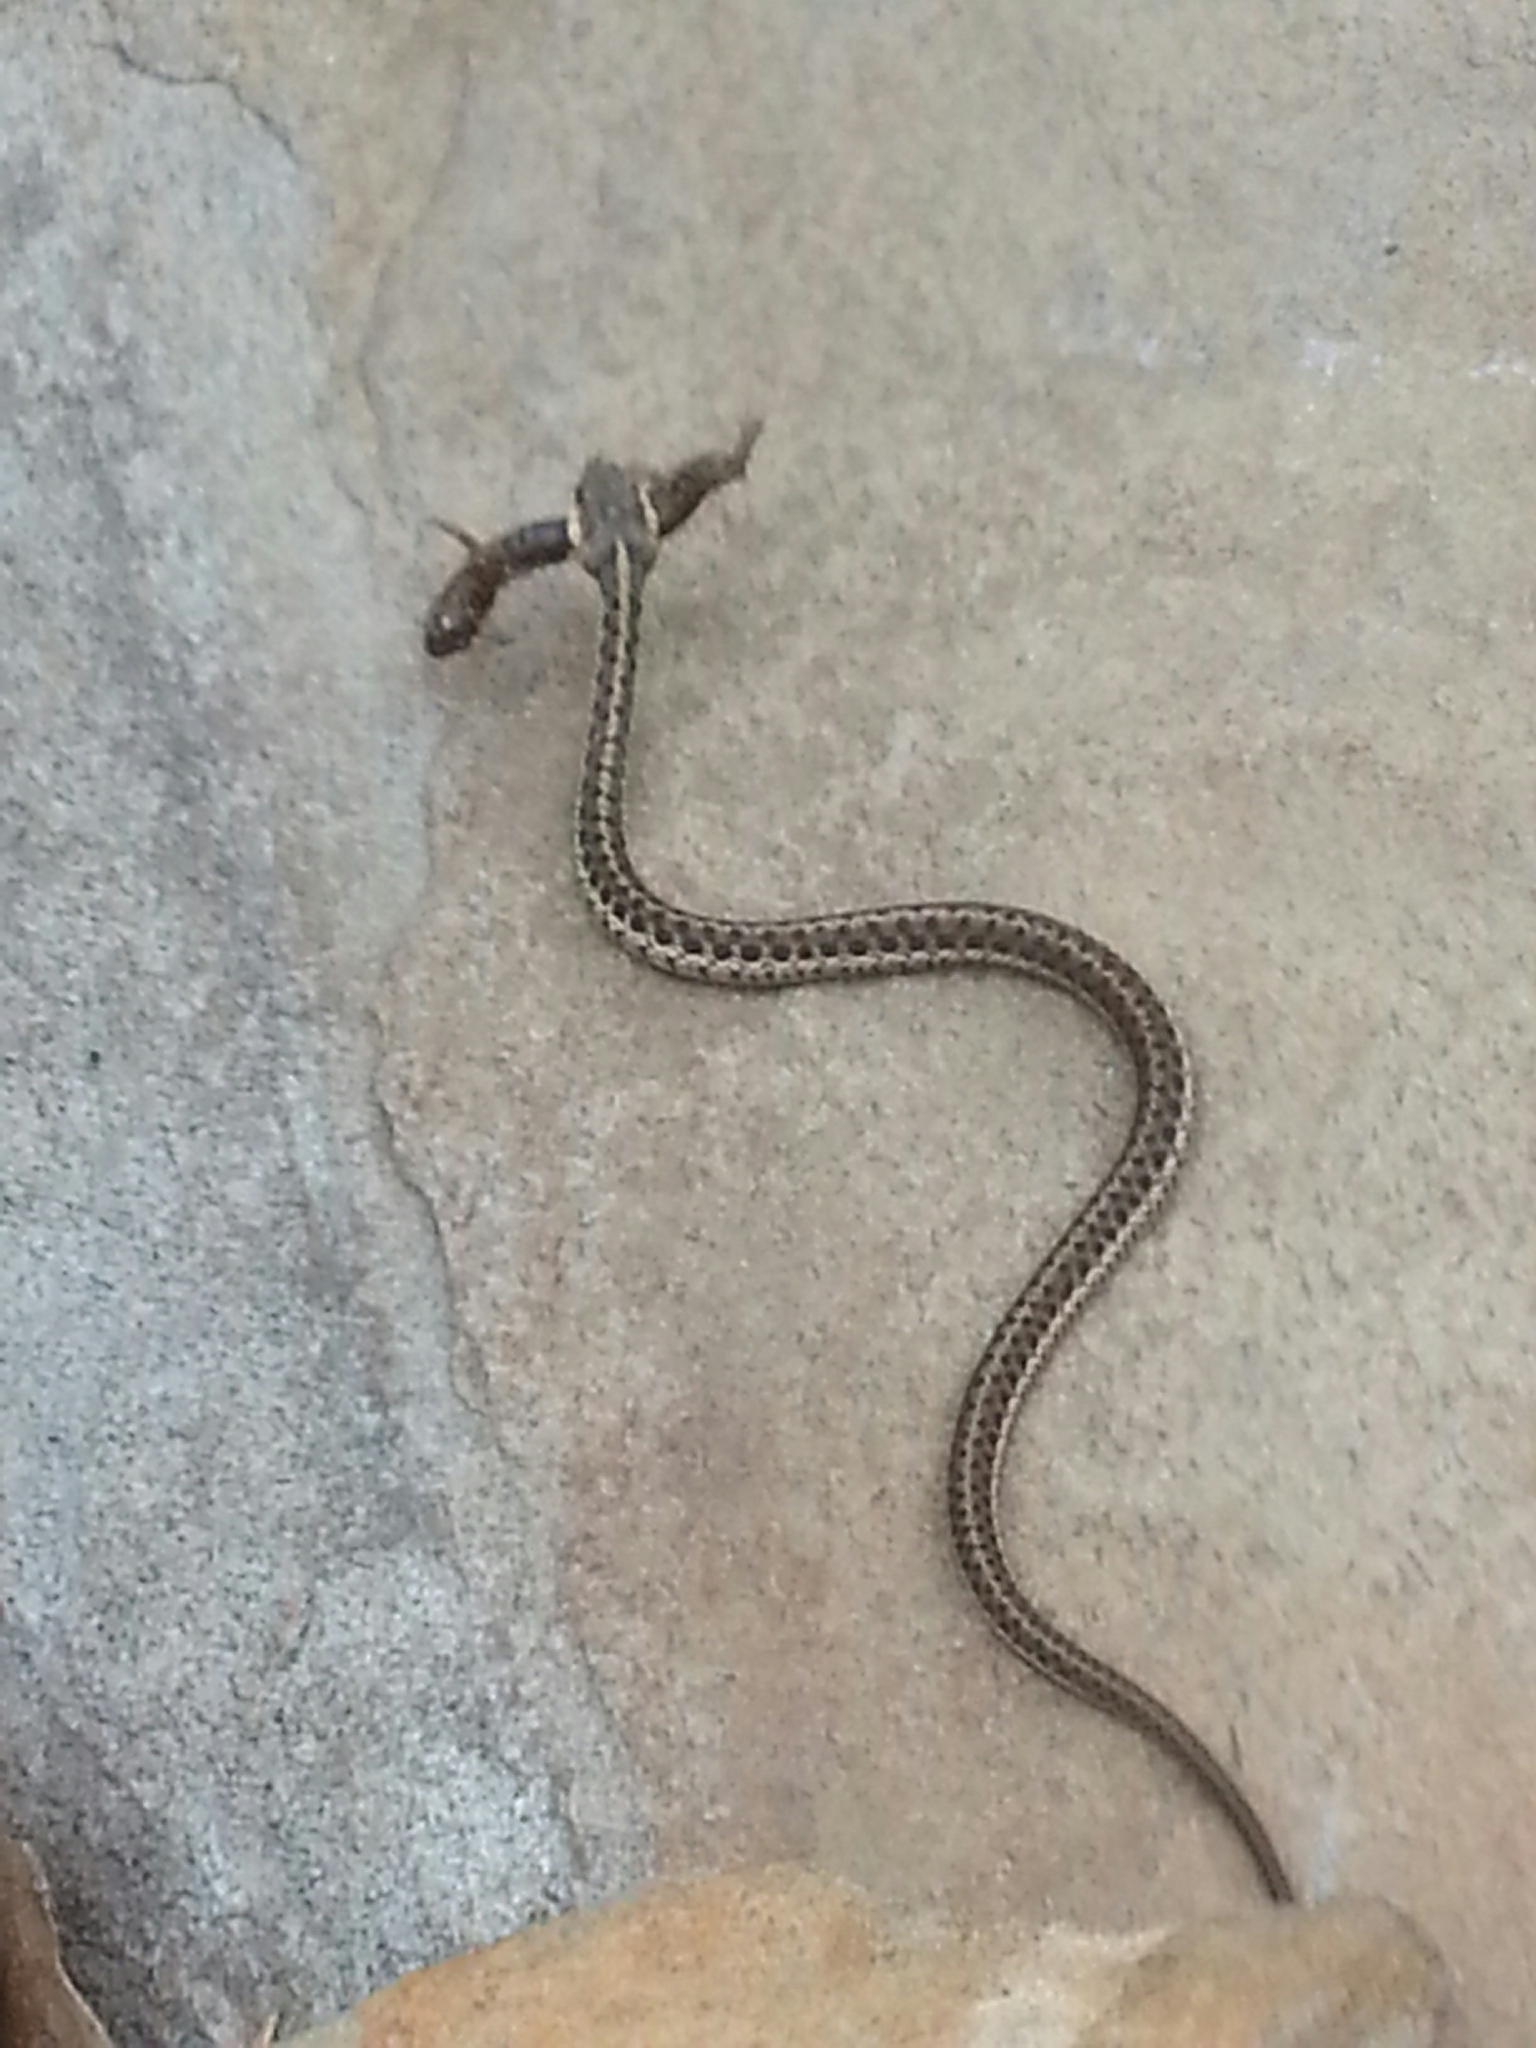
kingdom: Animalia
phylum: Chordata
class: Squamata
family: Colubridae
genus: Thamnophis
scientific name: Thamnophis sirtalis
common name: Common garter snake
